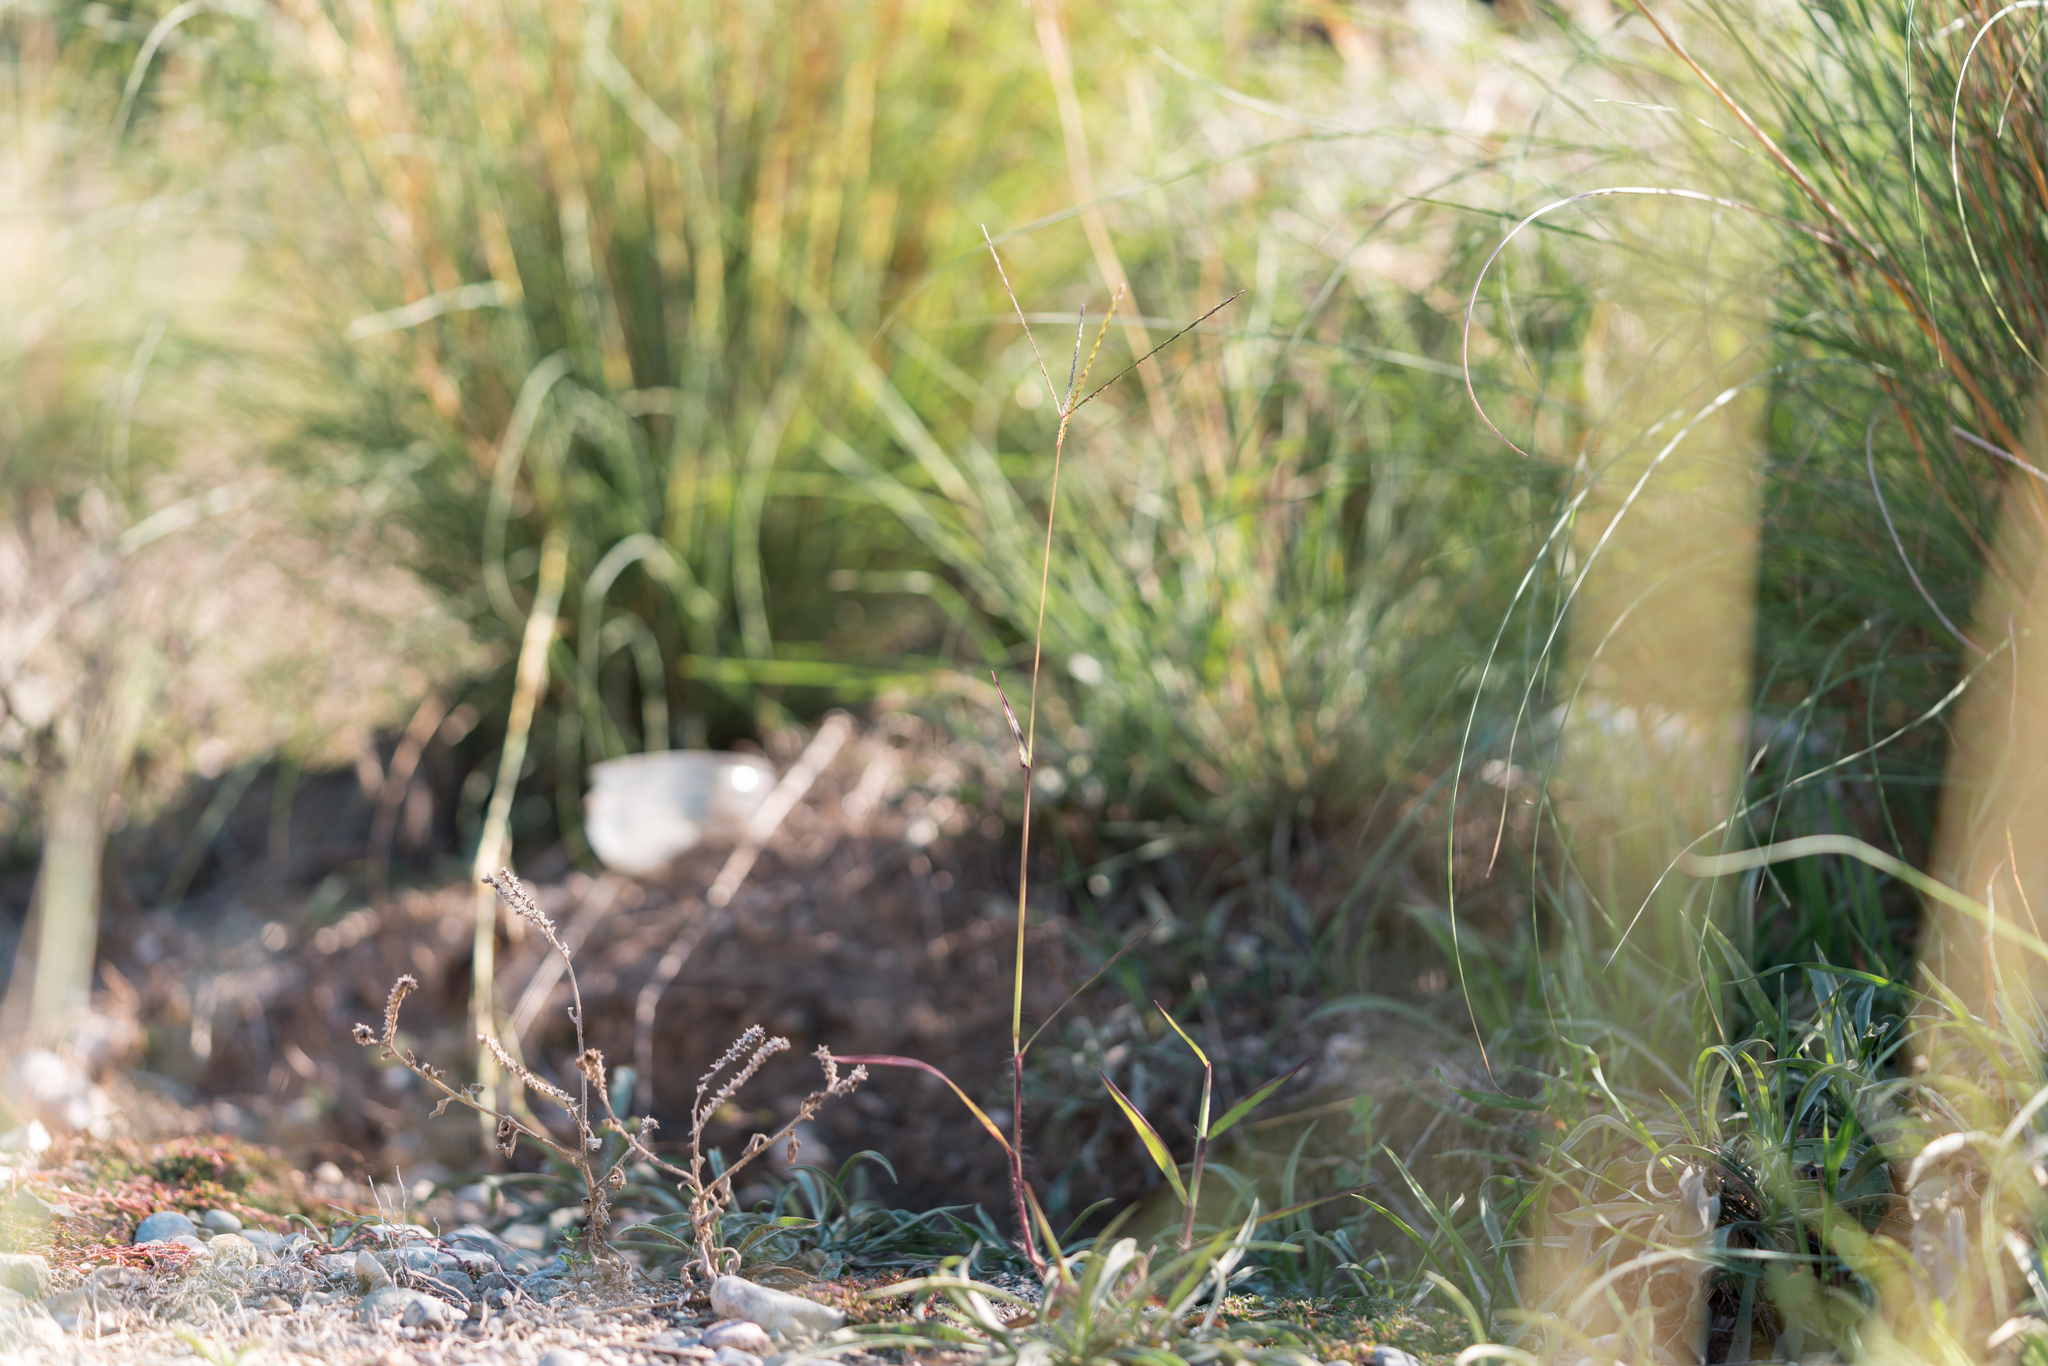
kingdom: Plantae
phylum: Tracheophyta
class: Liliopsida
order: Poales
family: Poaceae
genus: Cynodon
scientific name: Cynodon dactylon
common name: Bermuda grass
